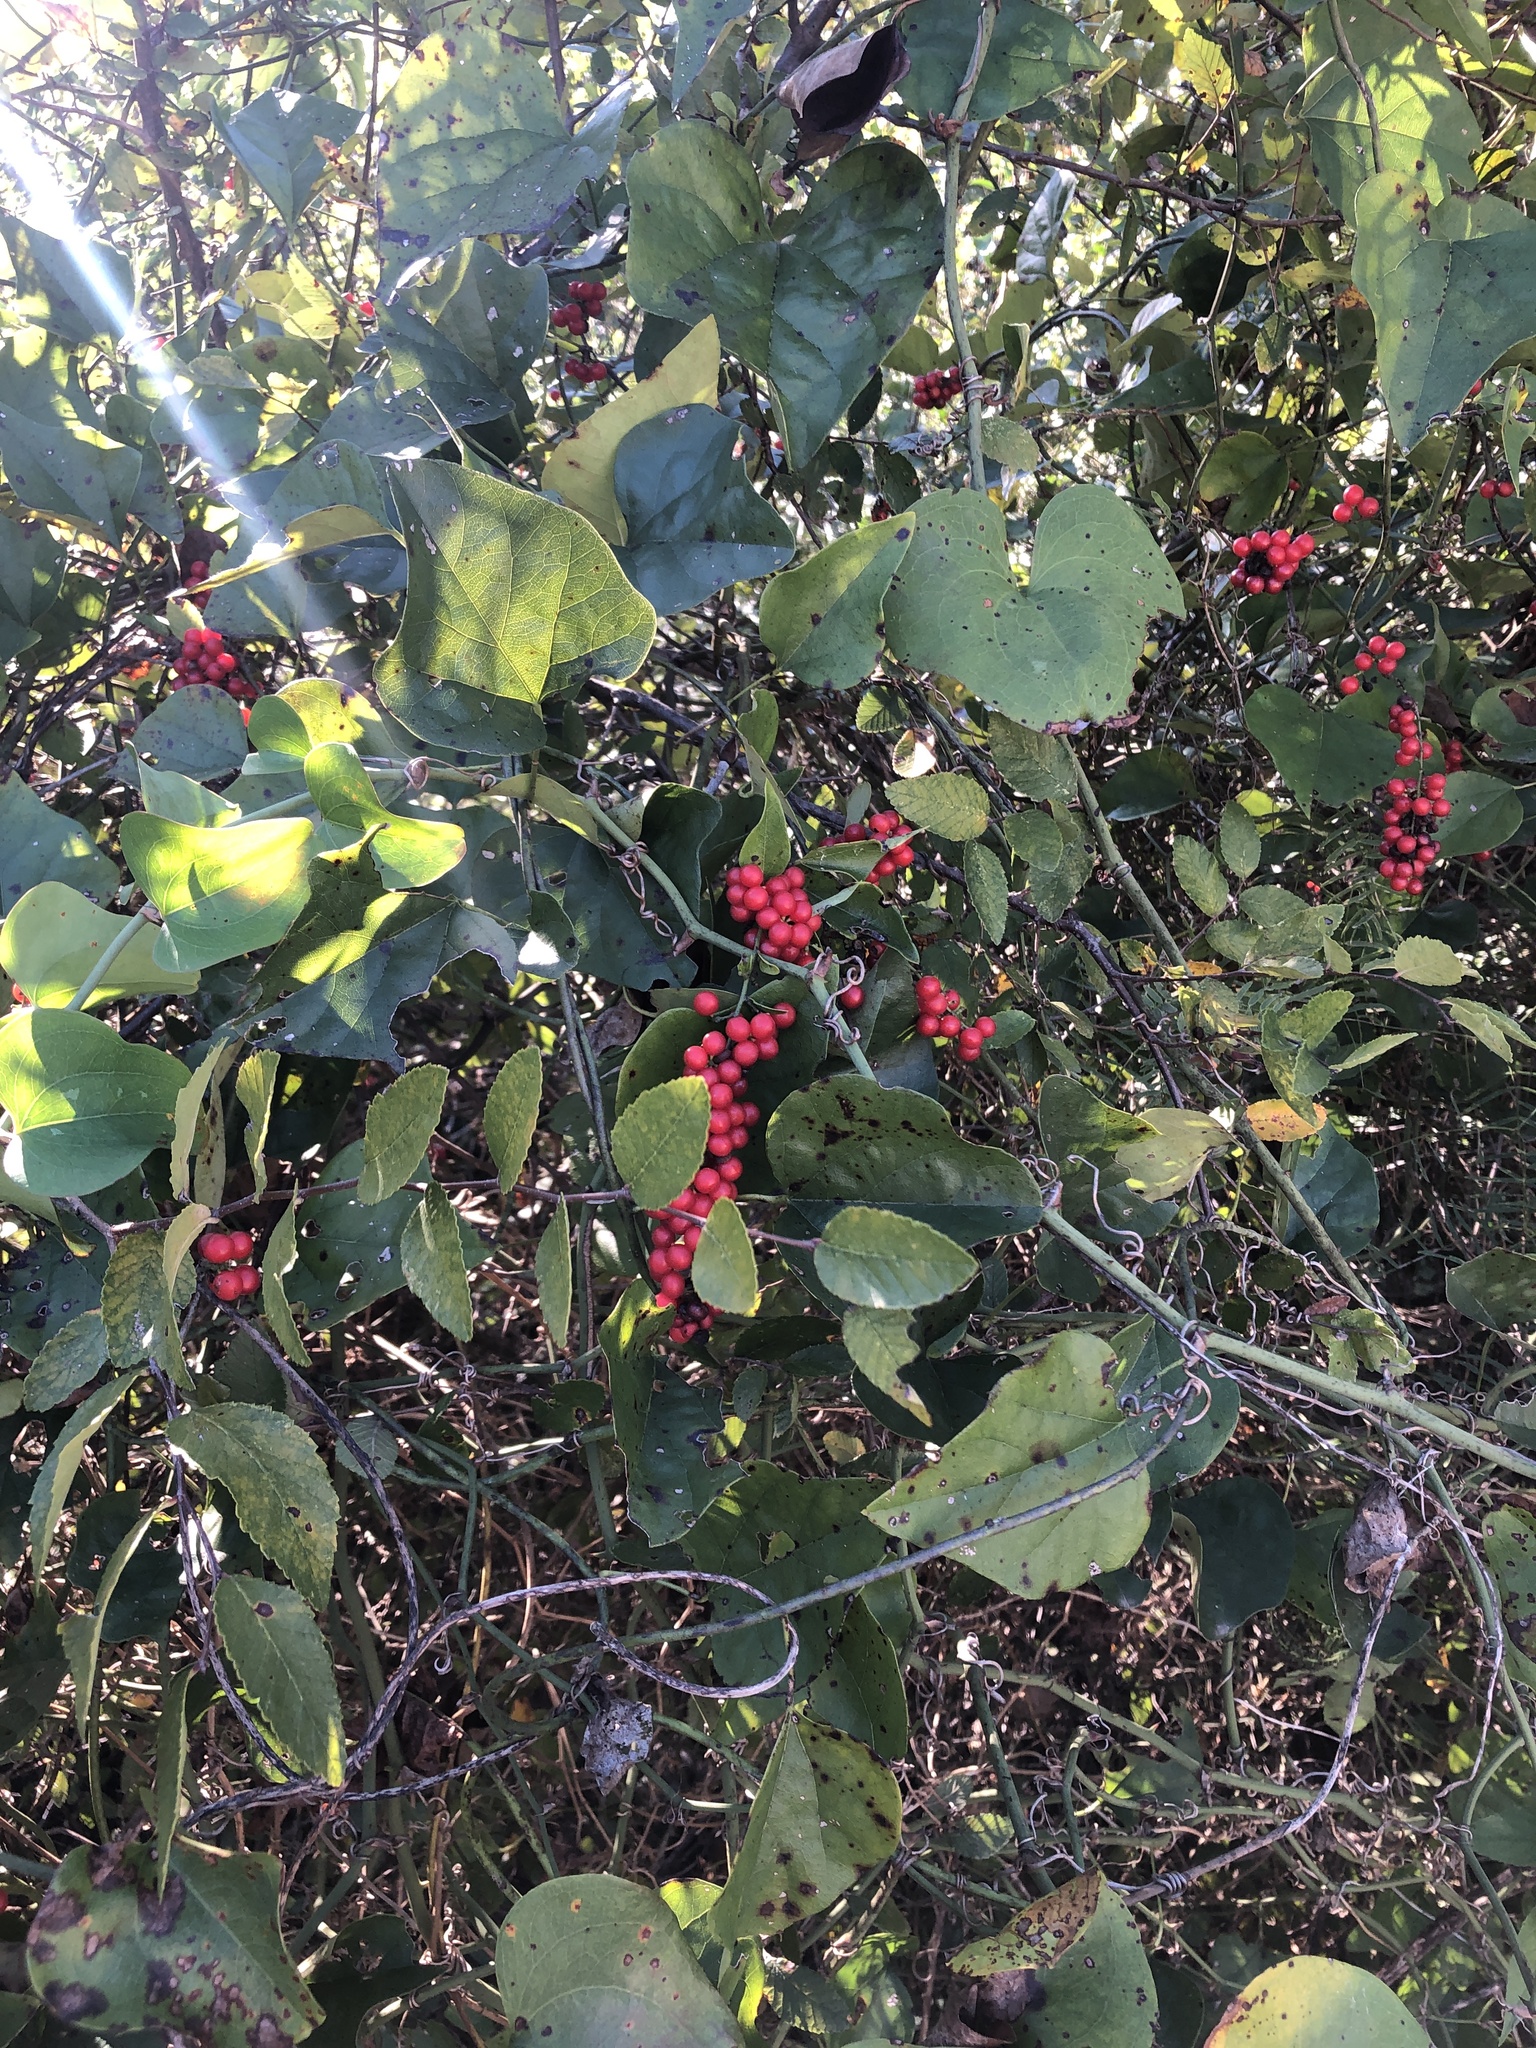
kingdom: Plantae
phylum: Tracheophyta
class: Magnoliopsida
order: Ranunculales
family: Menispermaceae
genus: Cocculus
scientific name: Cocculus carolinus
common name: Carolina moonseed
